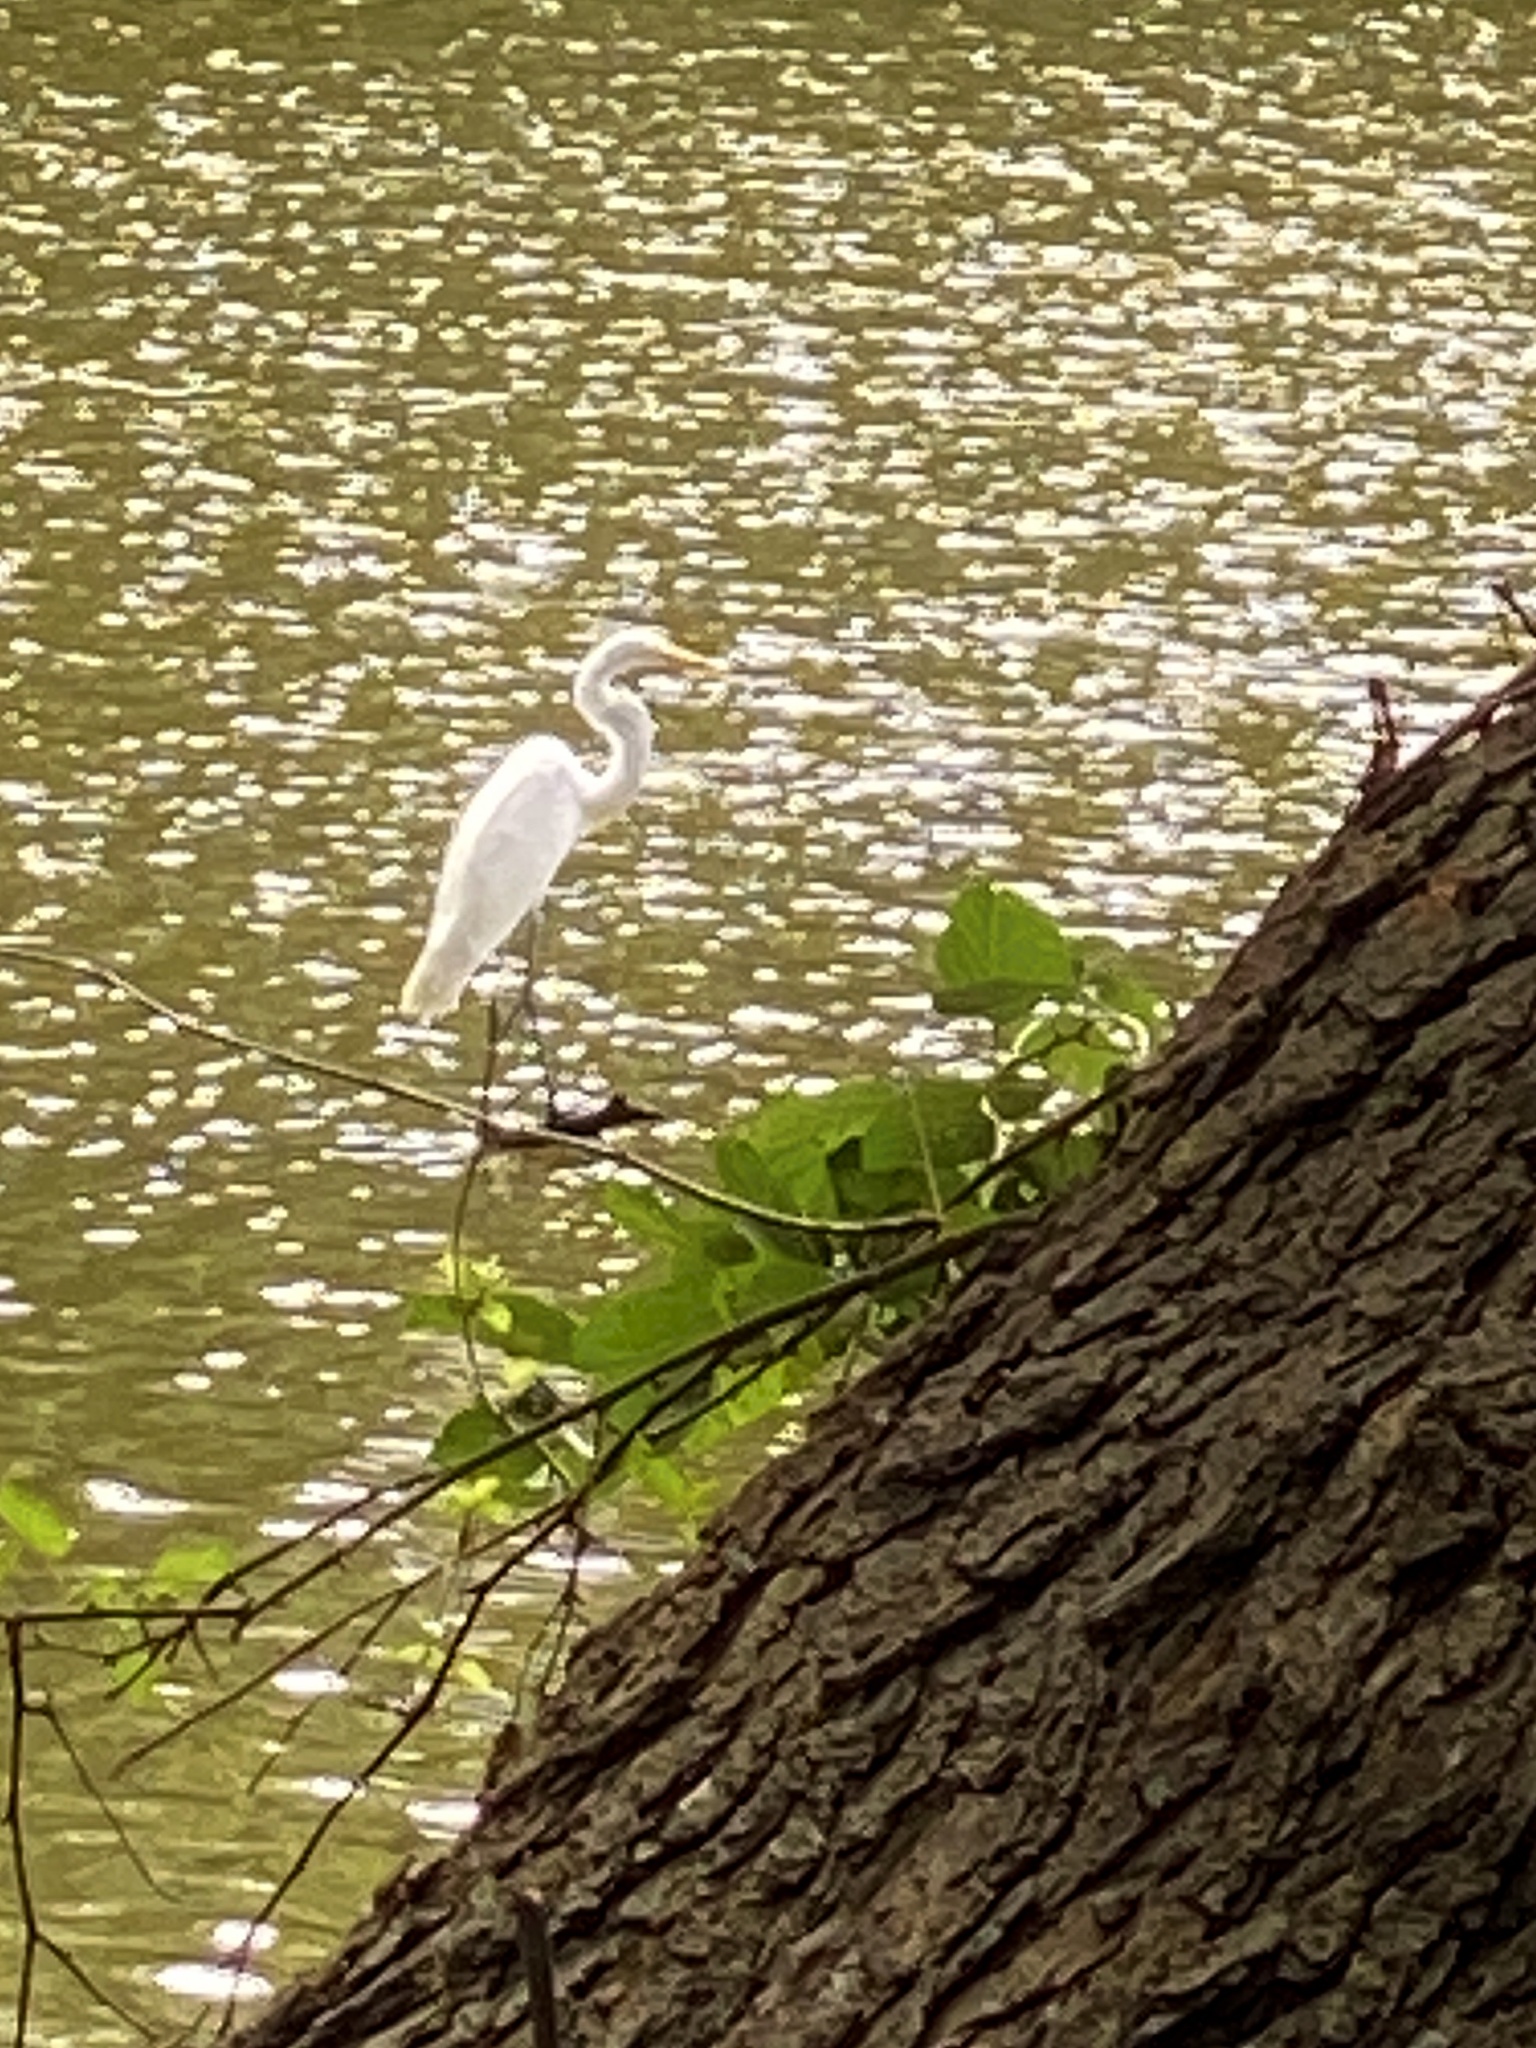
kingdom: Animalia
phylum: Chordata
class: Aves
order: Pelecaniformes
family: Ardeidae
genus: Ardea
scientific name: Ardea alba
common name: Great egret
